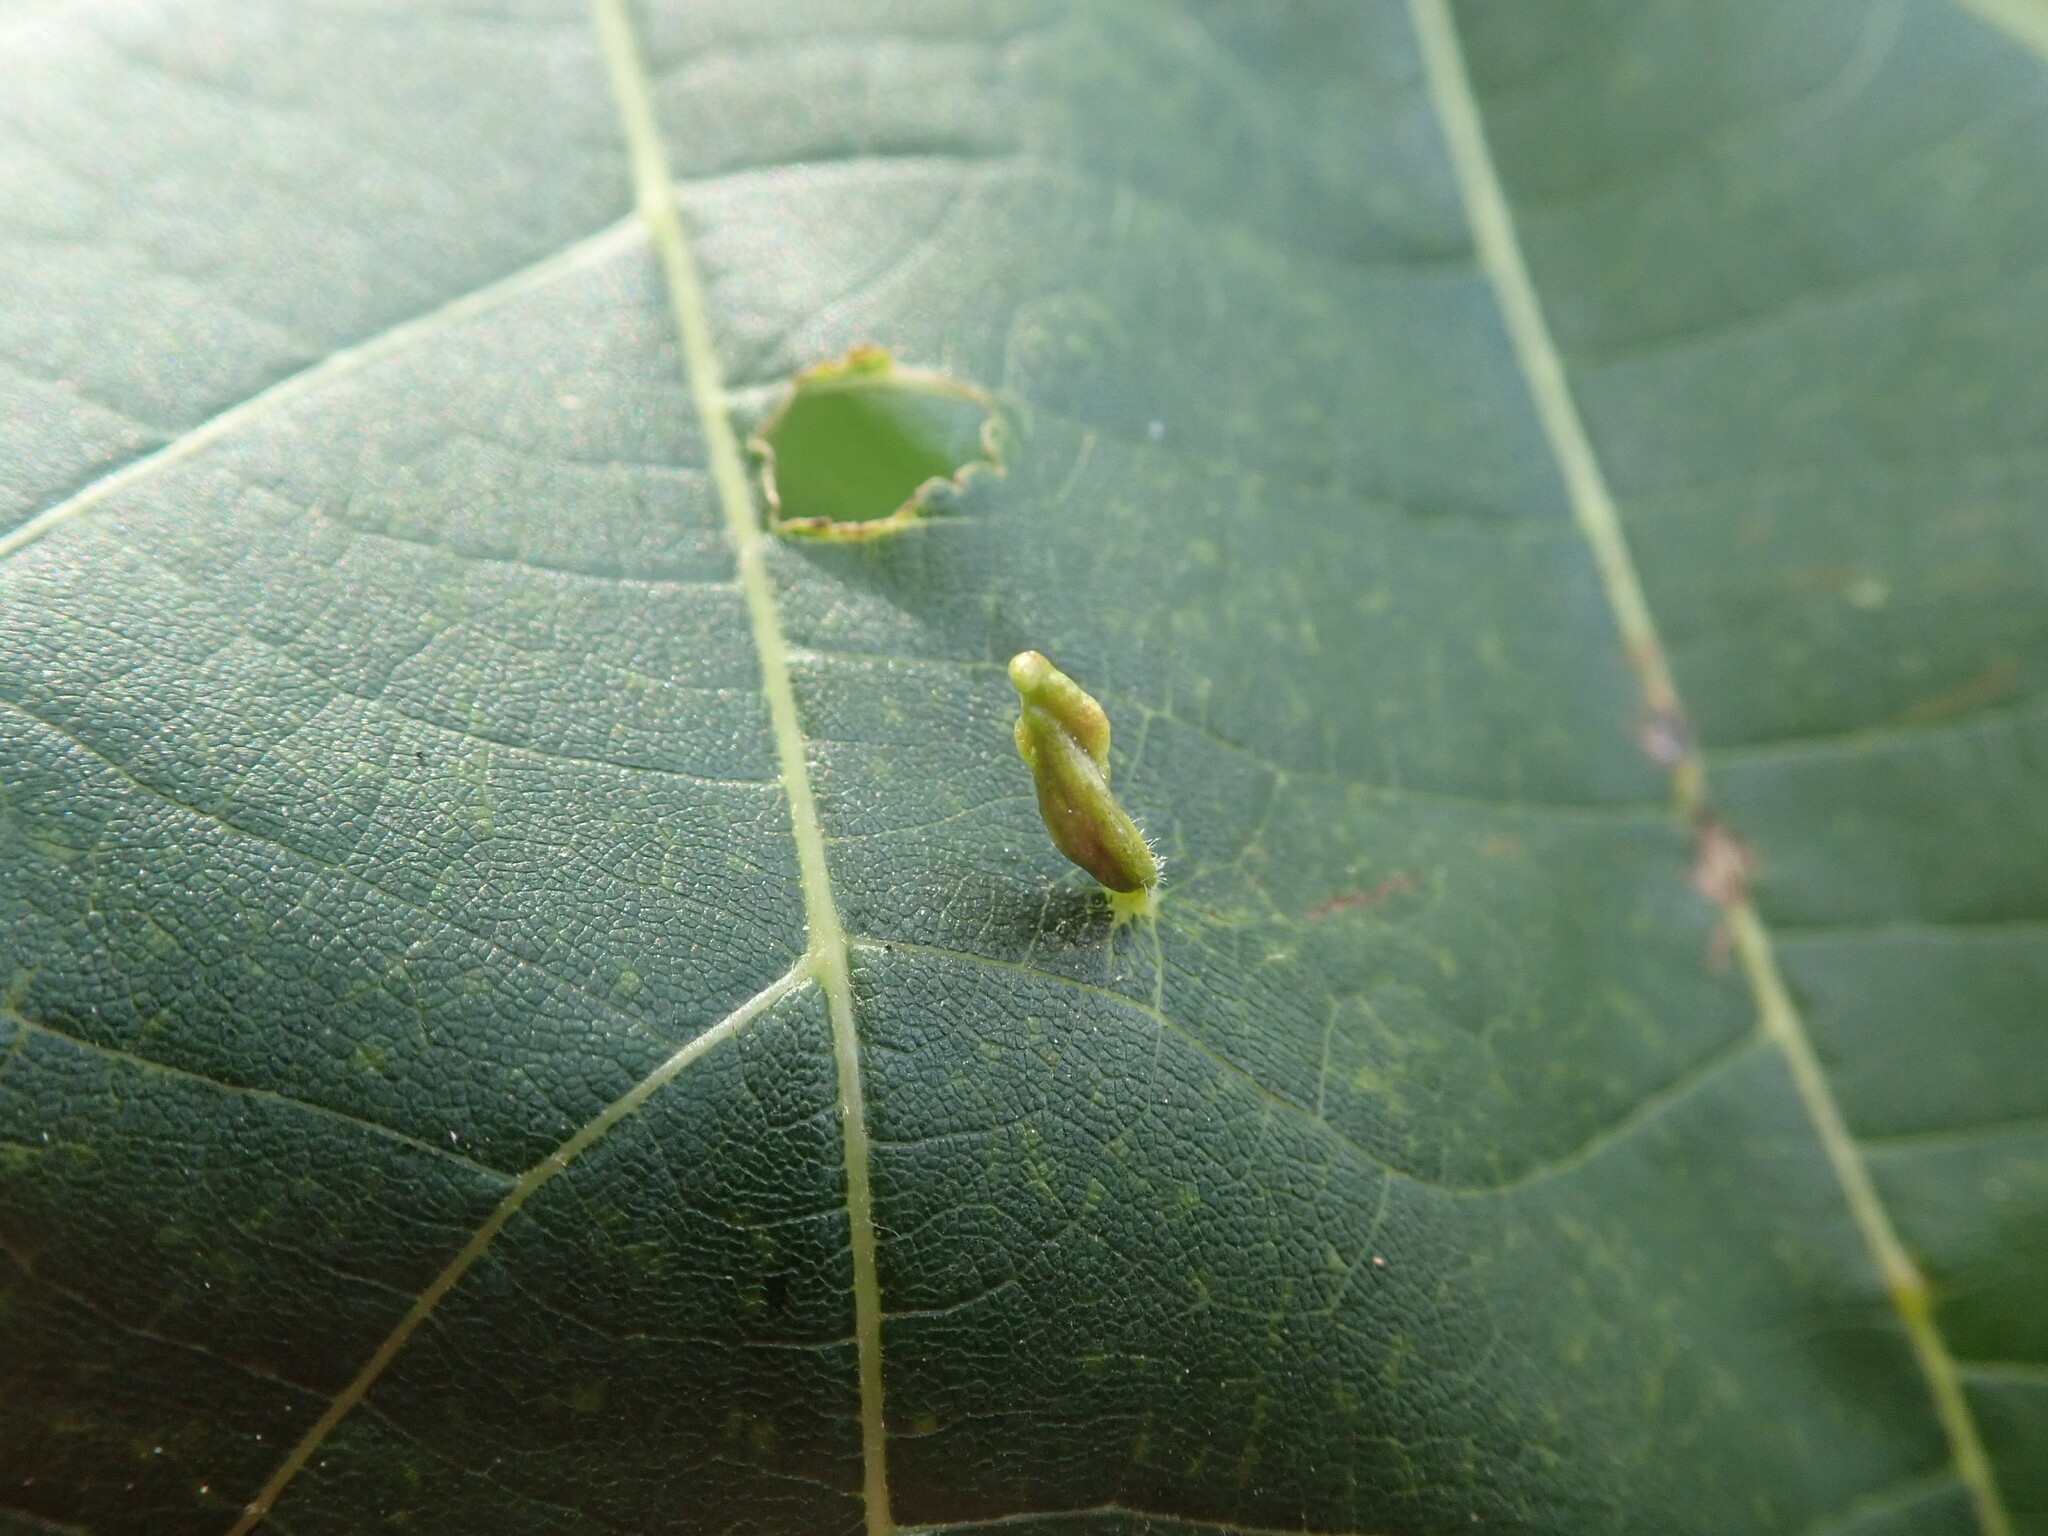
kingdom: Animalia
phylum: Arthropoda
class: Arachnida
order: Trombidiformes
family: Eriophyidae
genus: Eriophyes
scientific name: Eriophyes tiliae
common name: Red nail gall mite
